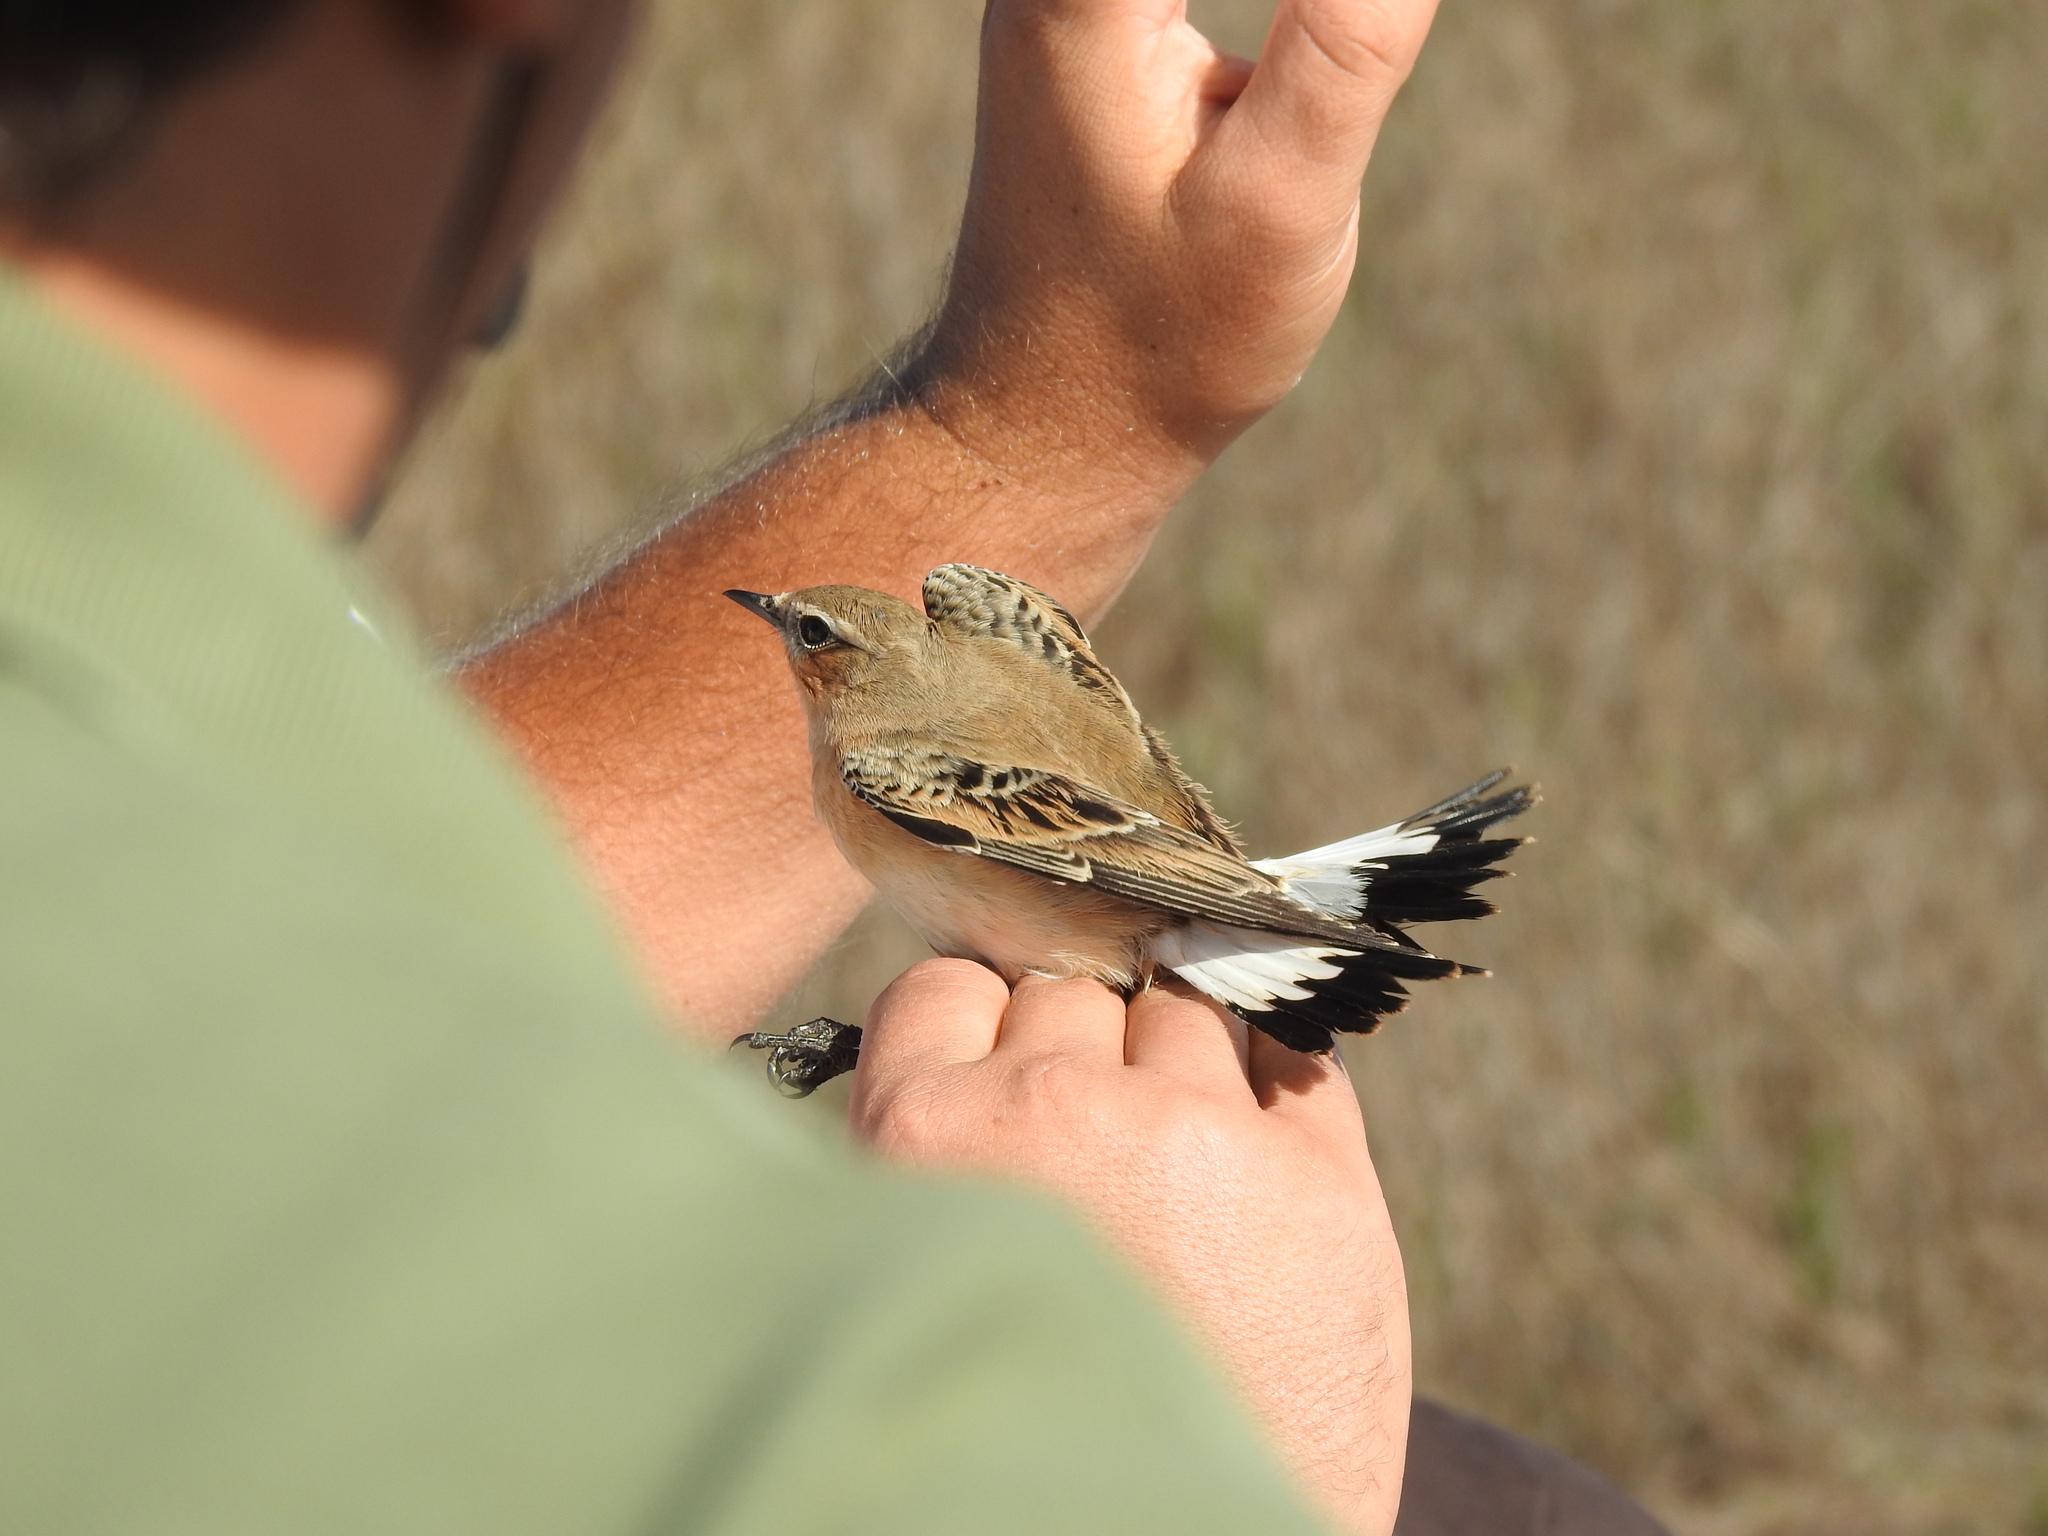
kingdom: Animalia
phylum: Chordata
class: Aves
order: Passeriformes
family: Muscicapidae
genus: Oenanthe
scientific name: Oenanthe oenanthe
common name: Northern wheatear
